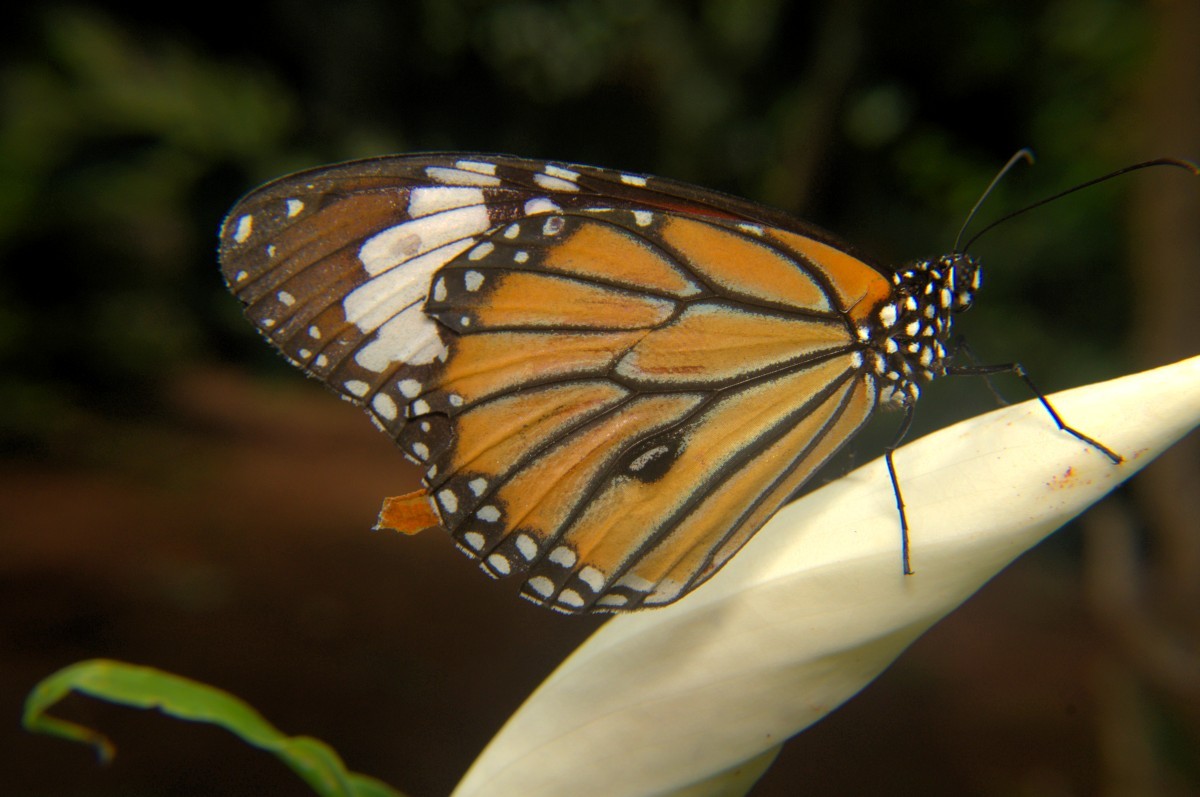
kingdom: Animalia
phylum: Arthropoda
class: Insecta
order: Lepidoptera
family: Nymphalidae
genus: Danaus
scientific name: Danaus genutia
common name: Common tiger butterfly
